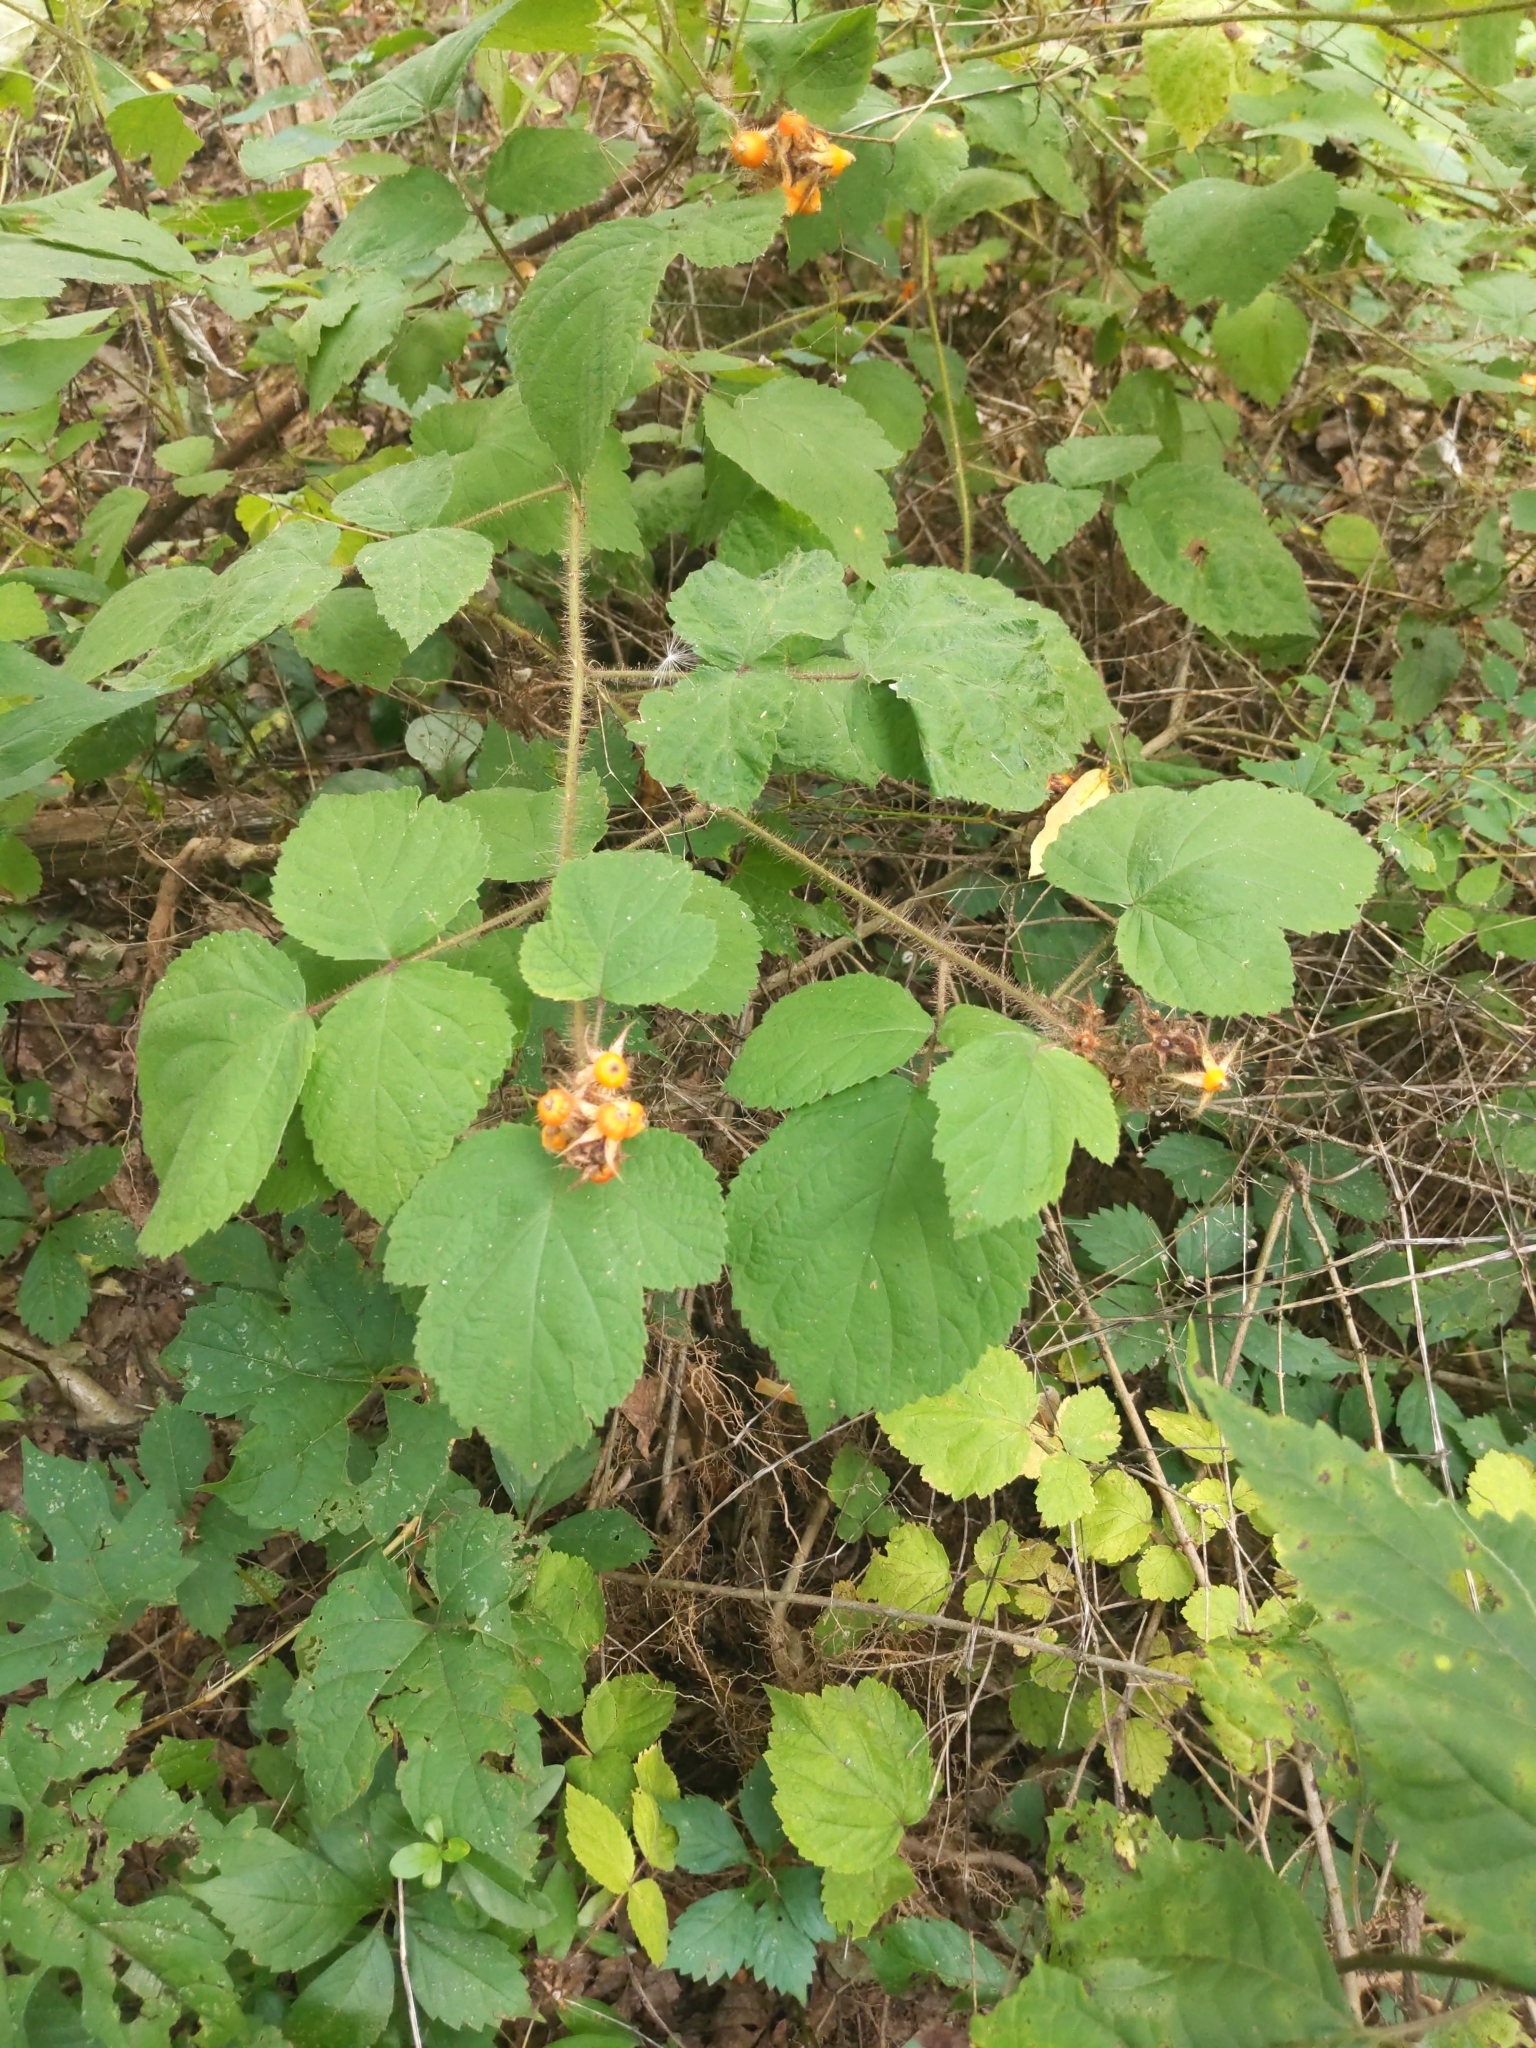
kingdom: Plantae
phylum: Tracheophyta
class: Magnoliopsida
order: Rosales
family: Rosaceae
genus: Rubus
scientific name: Rubus phoenicolasius
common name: Japanese wineberry
